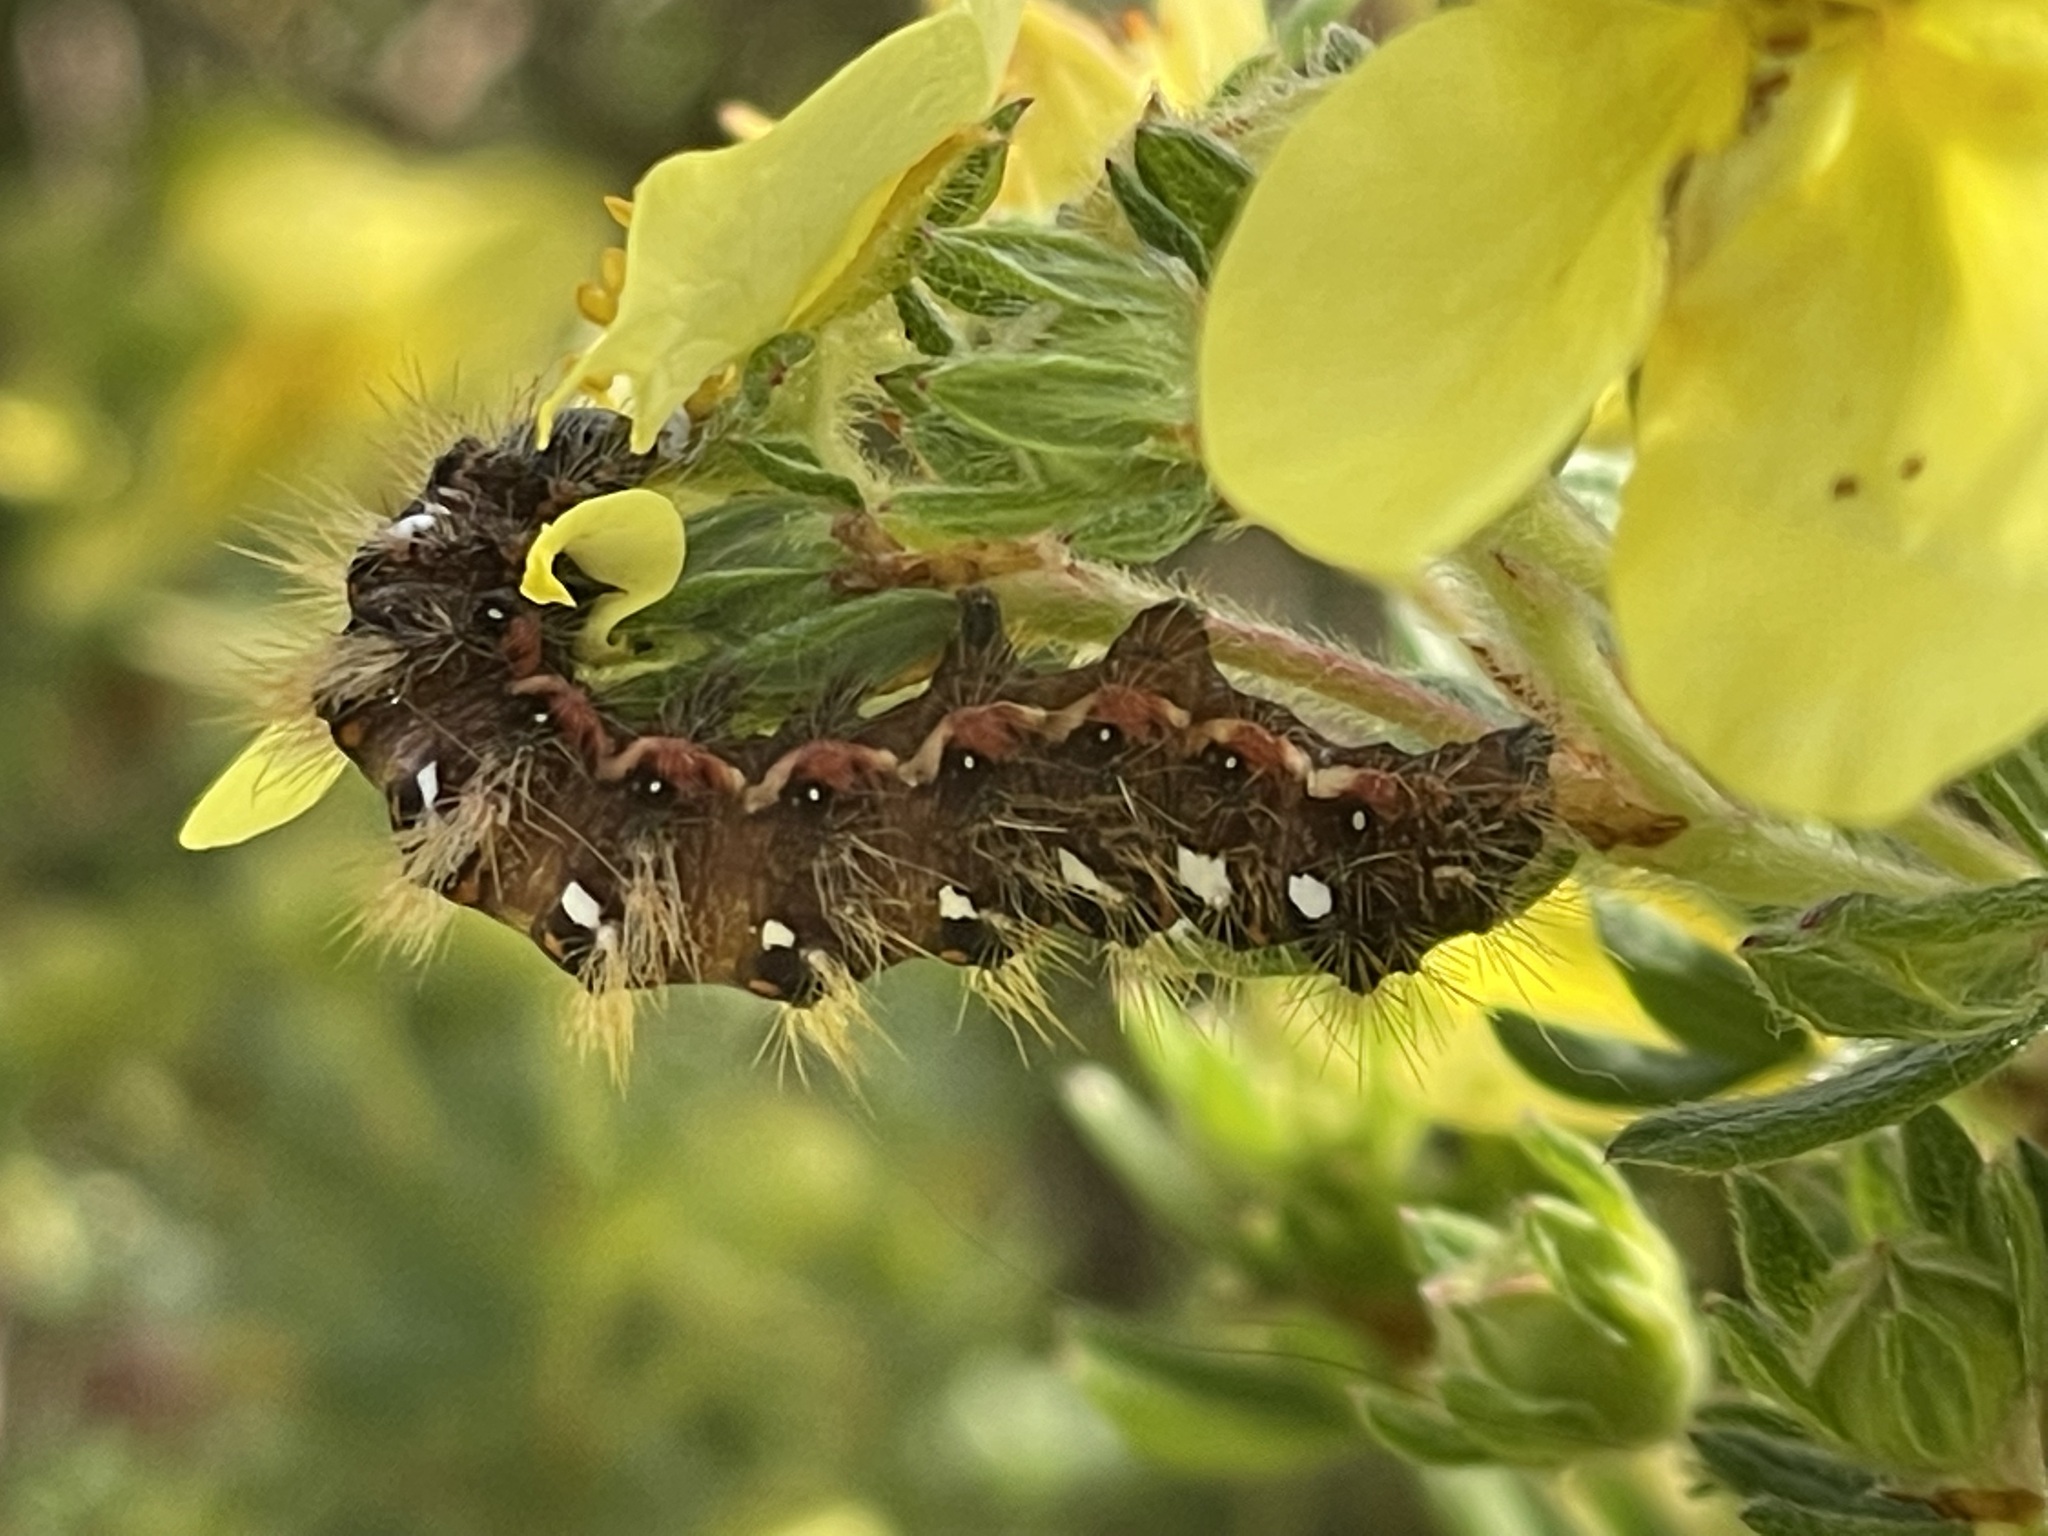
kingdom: Animalia
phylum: Arthropoda
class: Insecta
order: Lepidoptera
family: Noctuidae
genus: Acronicta
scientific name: Acronicta rumicis
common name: Knot grass
